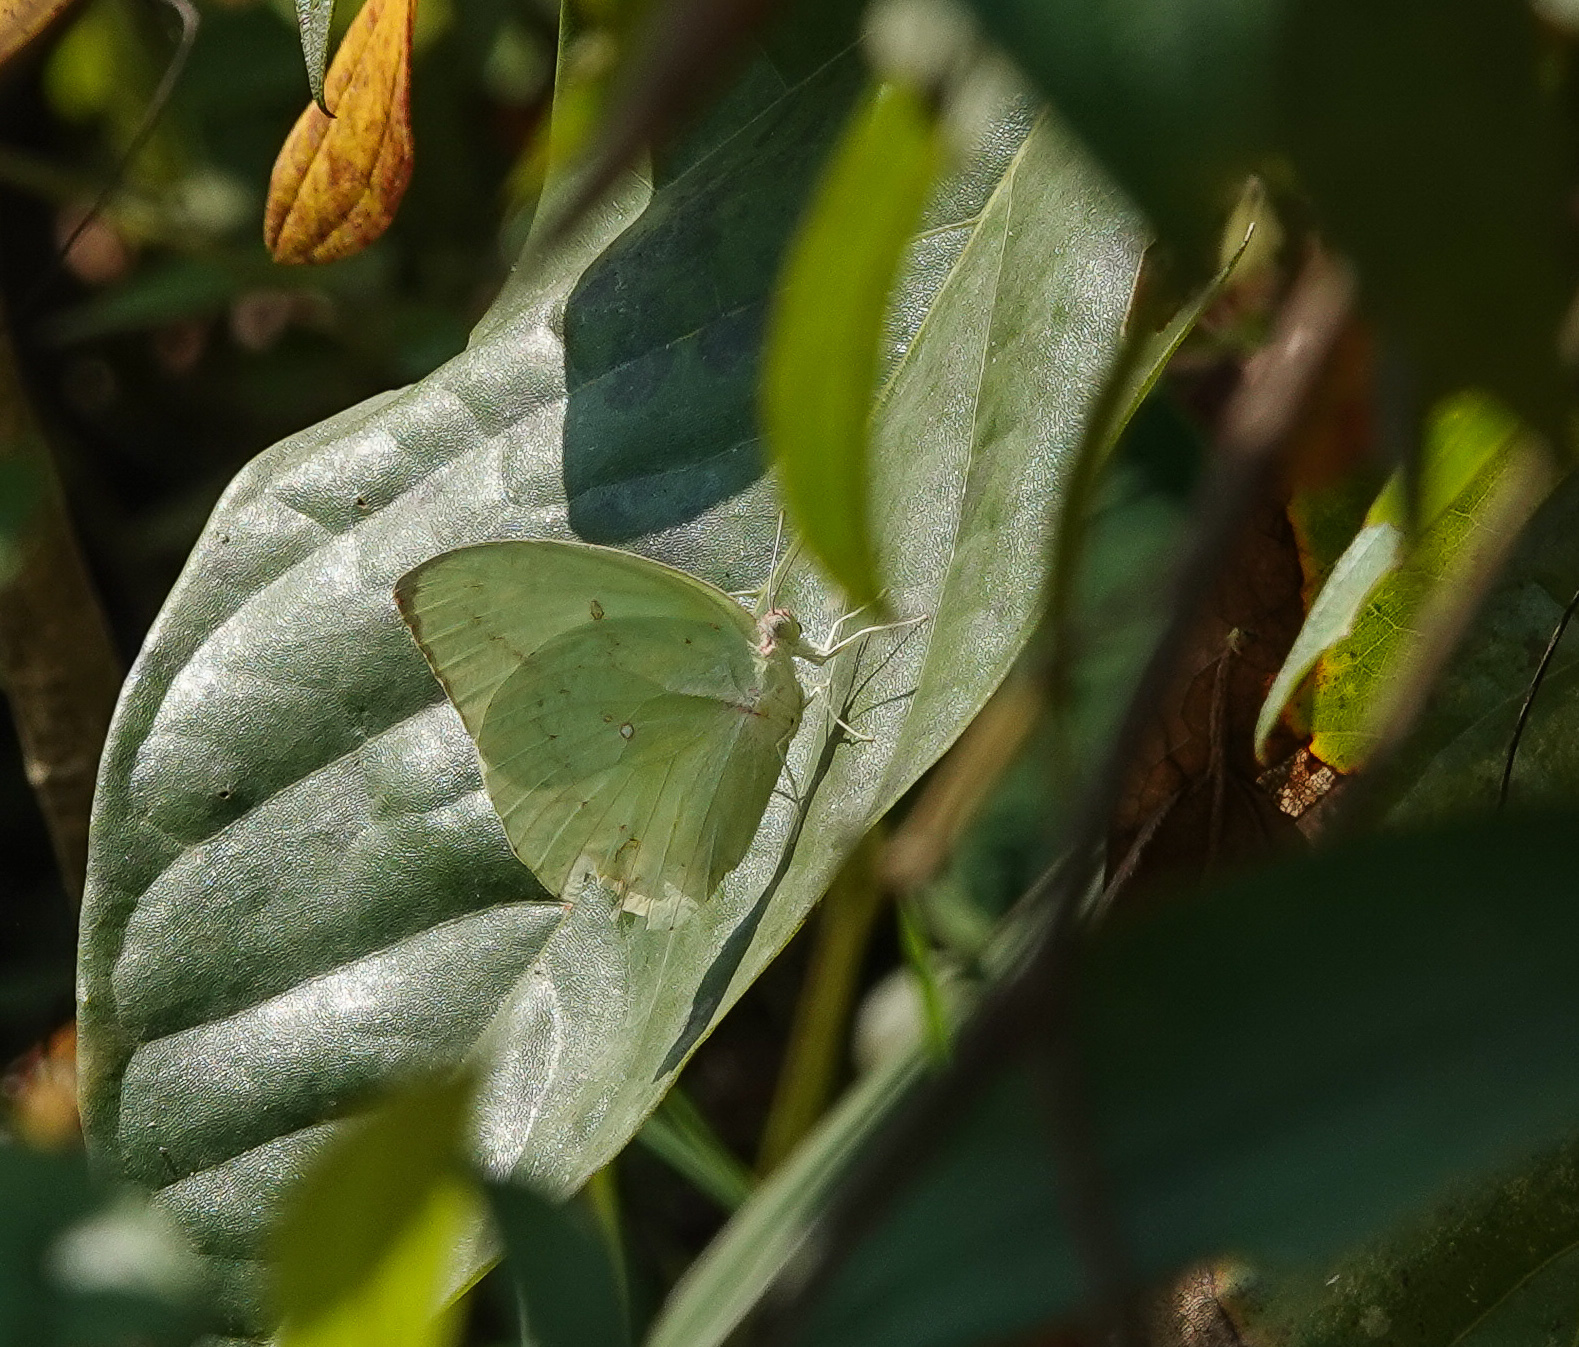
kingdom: Animalia
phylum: Arthropoda
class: Insecta
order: Lepidoptera
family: Pieridae
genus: Catopsilia
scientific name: Catopsilia pomona
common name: Common emigrant
